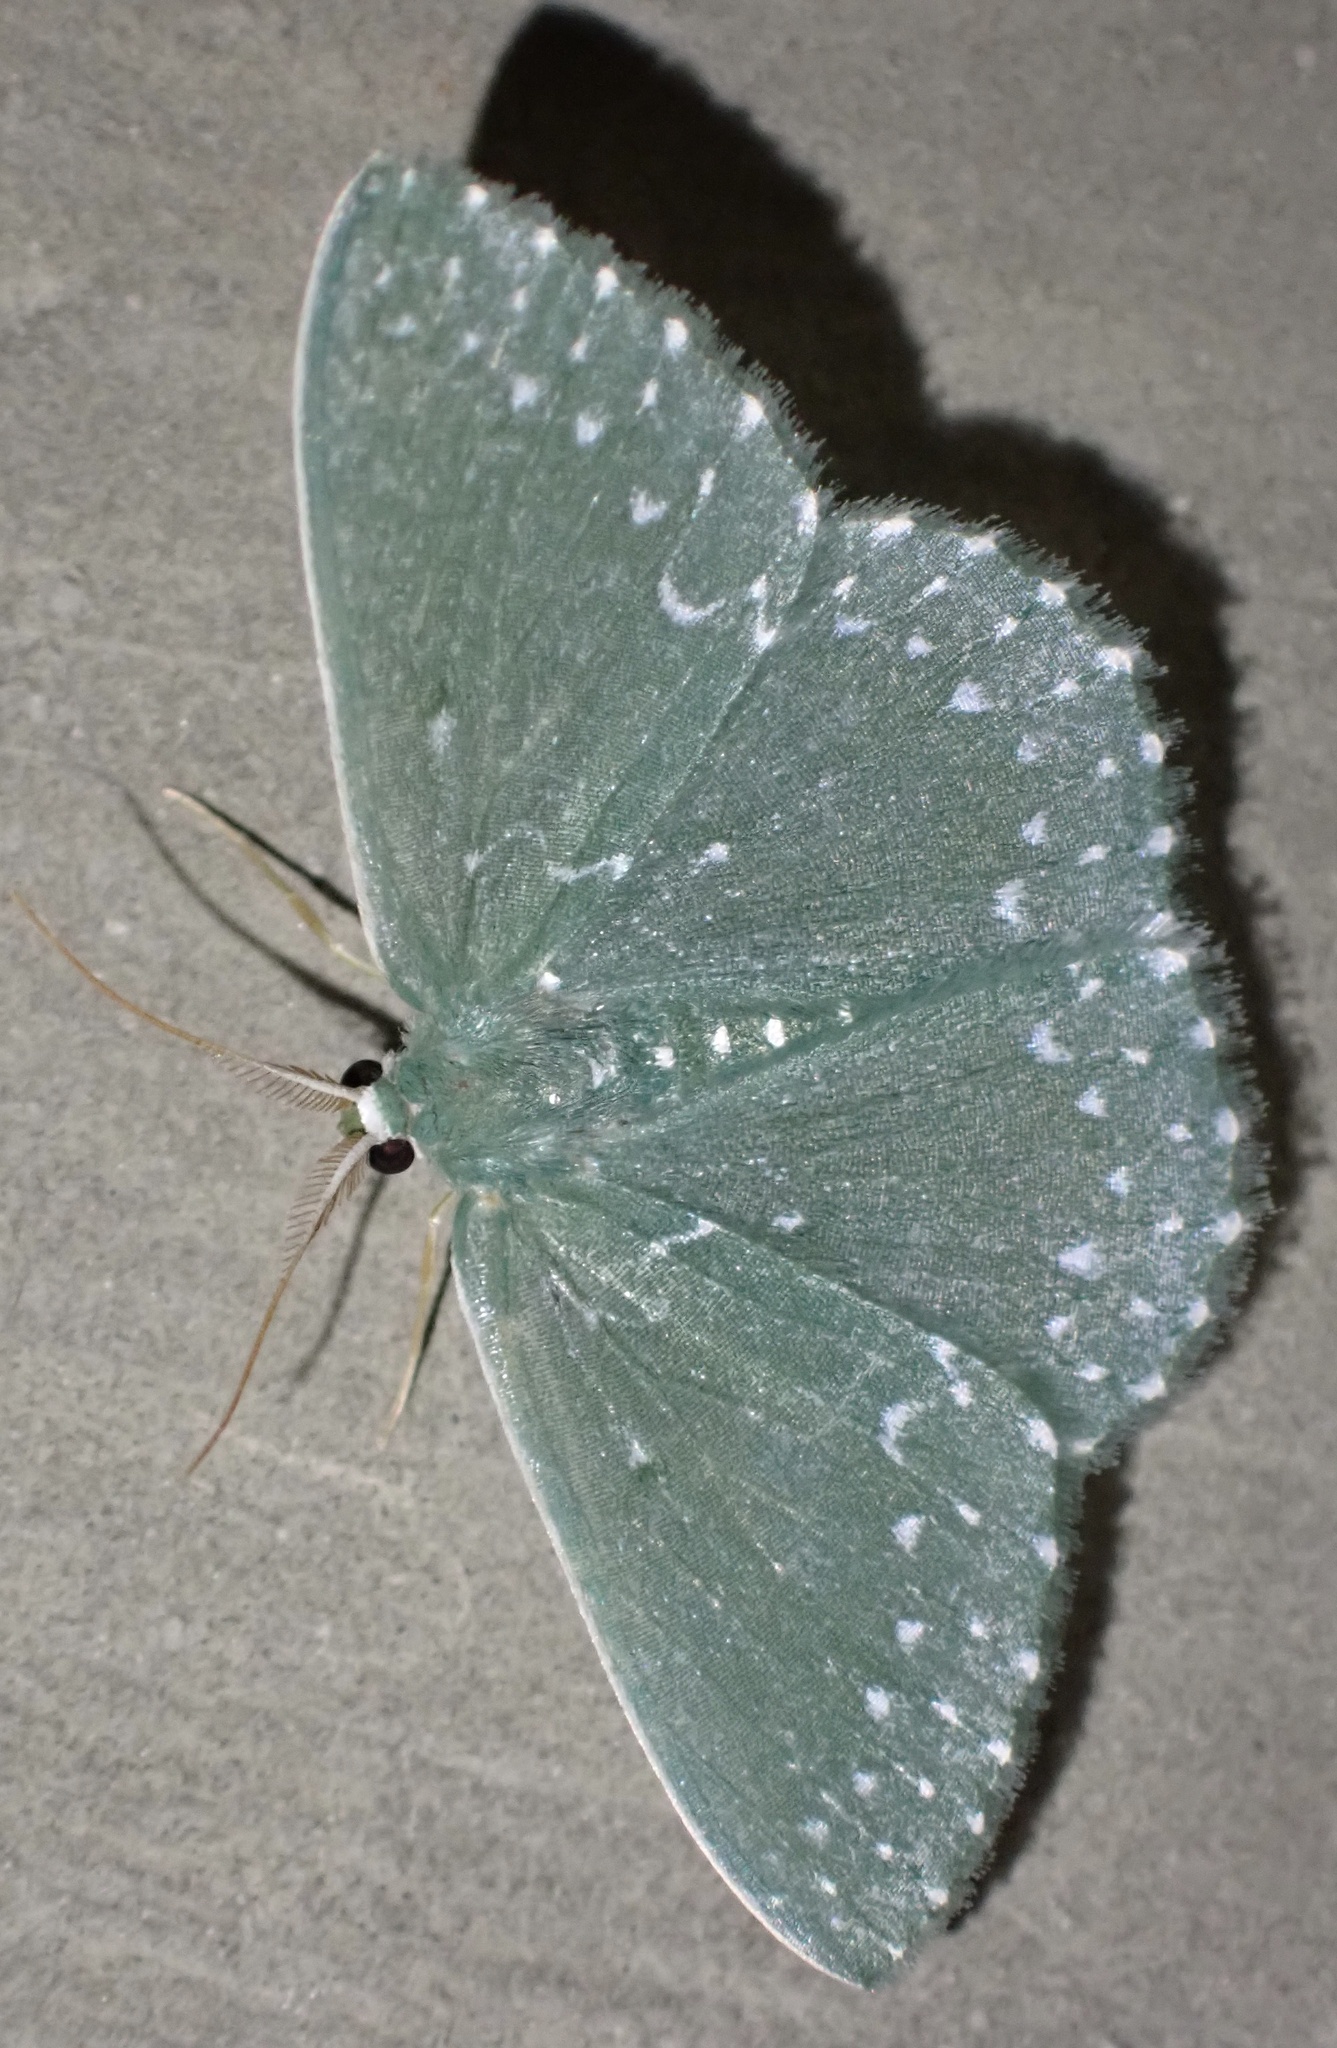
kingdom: Animalia
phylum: Arthropoda
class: Insecta
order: Lepidoptera
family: Geometridae
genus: Prasinocyma
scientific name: Prasinocyma
